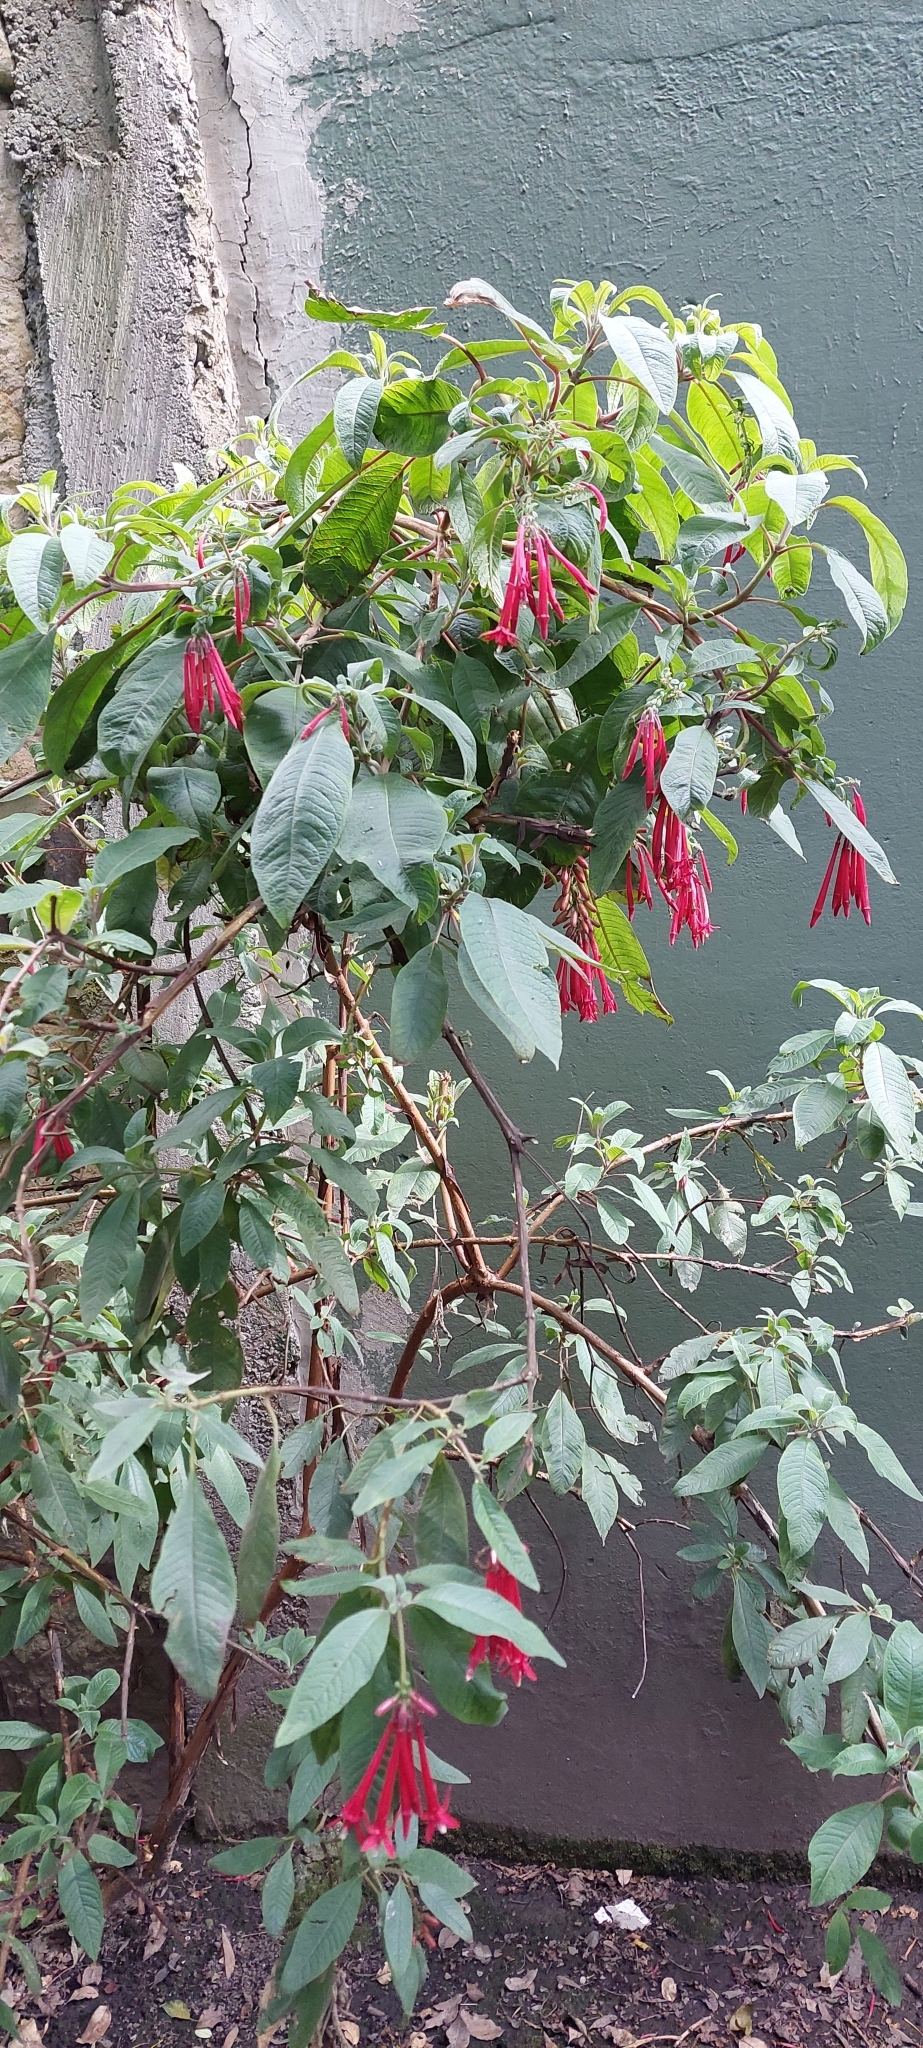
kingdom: Plantae
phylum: Tracheophyta
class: Magnoliopsida
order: Myrtales
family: Onagraceae
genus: Fuchsia
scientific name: Fuchsia boliviana
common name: Bolivian fuchsia
